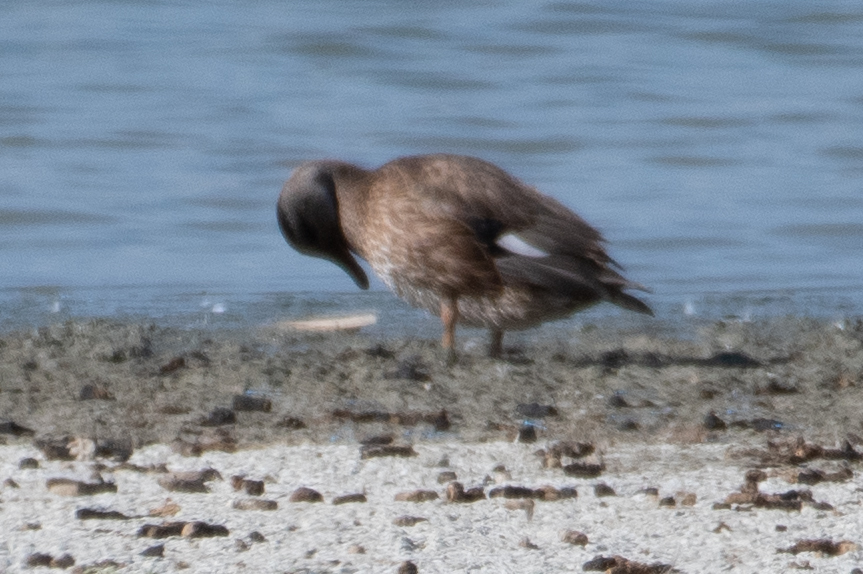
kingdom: Animalia
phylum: Chordata
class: Aves
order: Anseriformes
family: Anatidae
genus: Mareca
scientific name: Mareca strepera
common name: Gadwall
